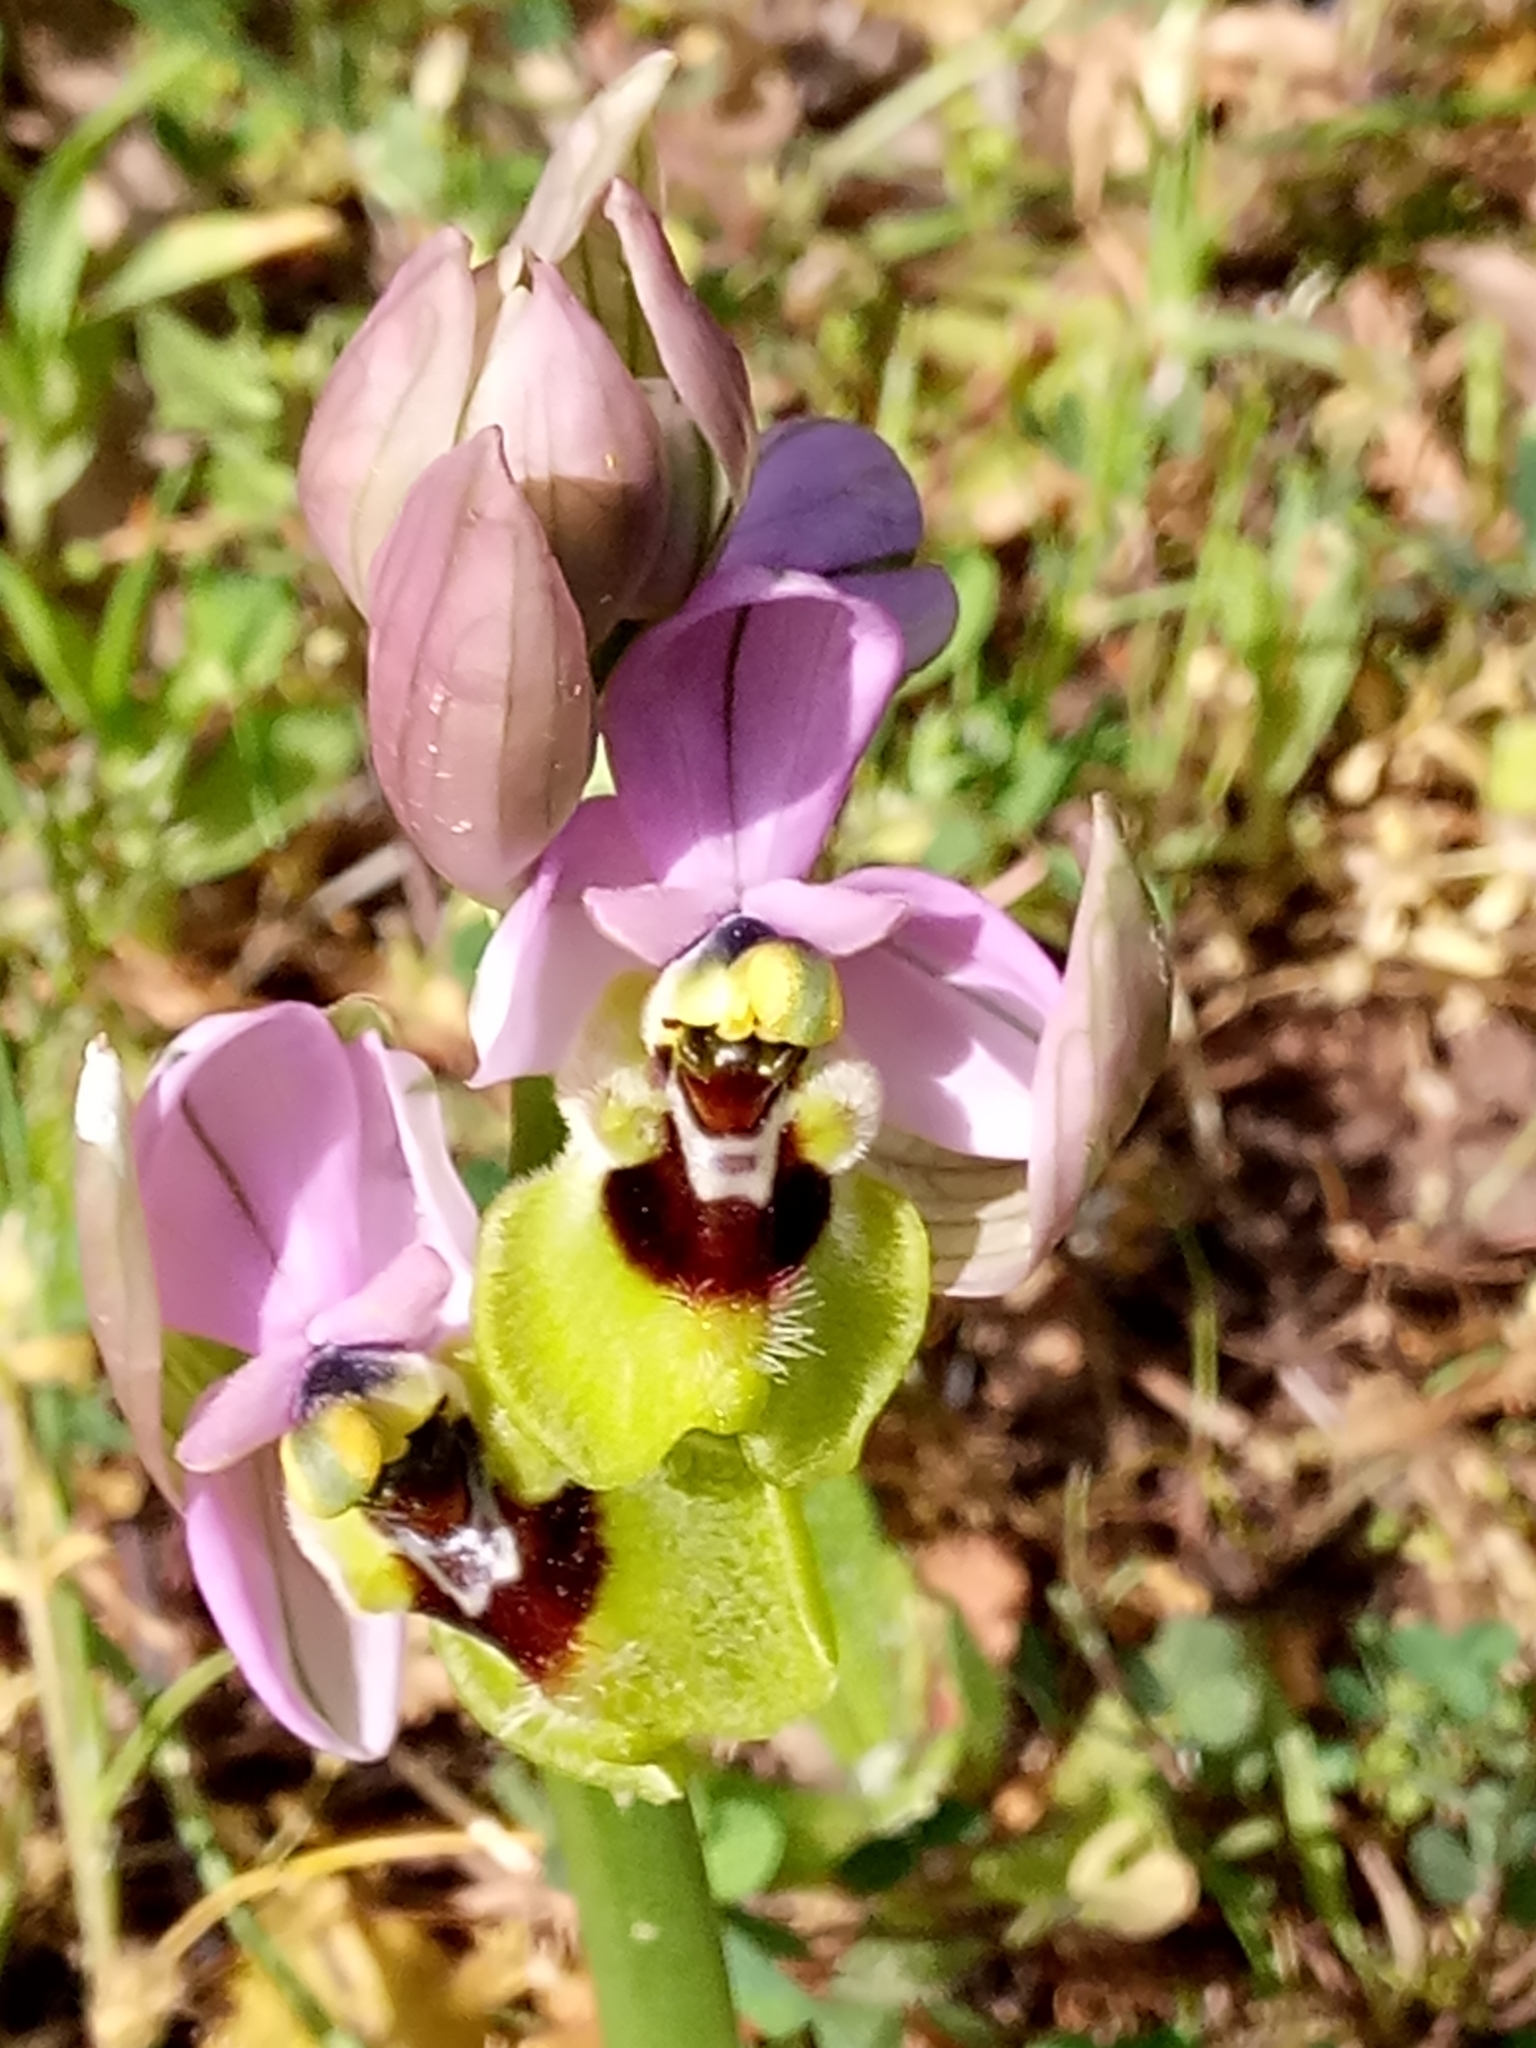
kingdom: Plantae
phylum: Tracheophyta
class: Liliopsida
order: Asparagales
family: Orchidaceae
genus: Ophrys
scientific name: Ophrys tenthredinifera
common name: Sawfly orchid
